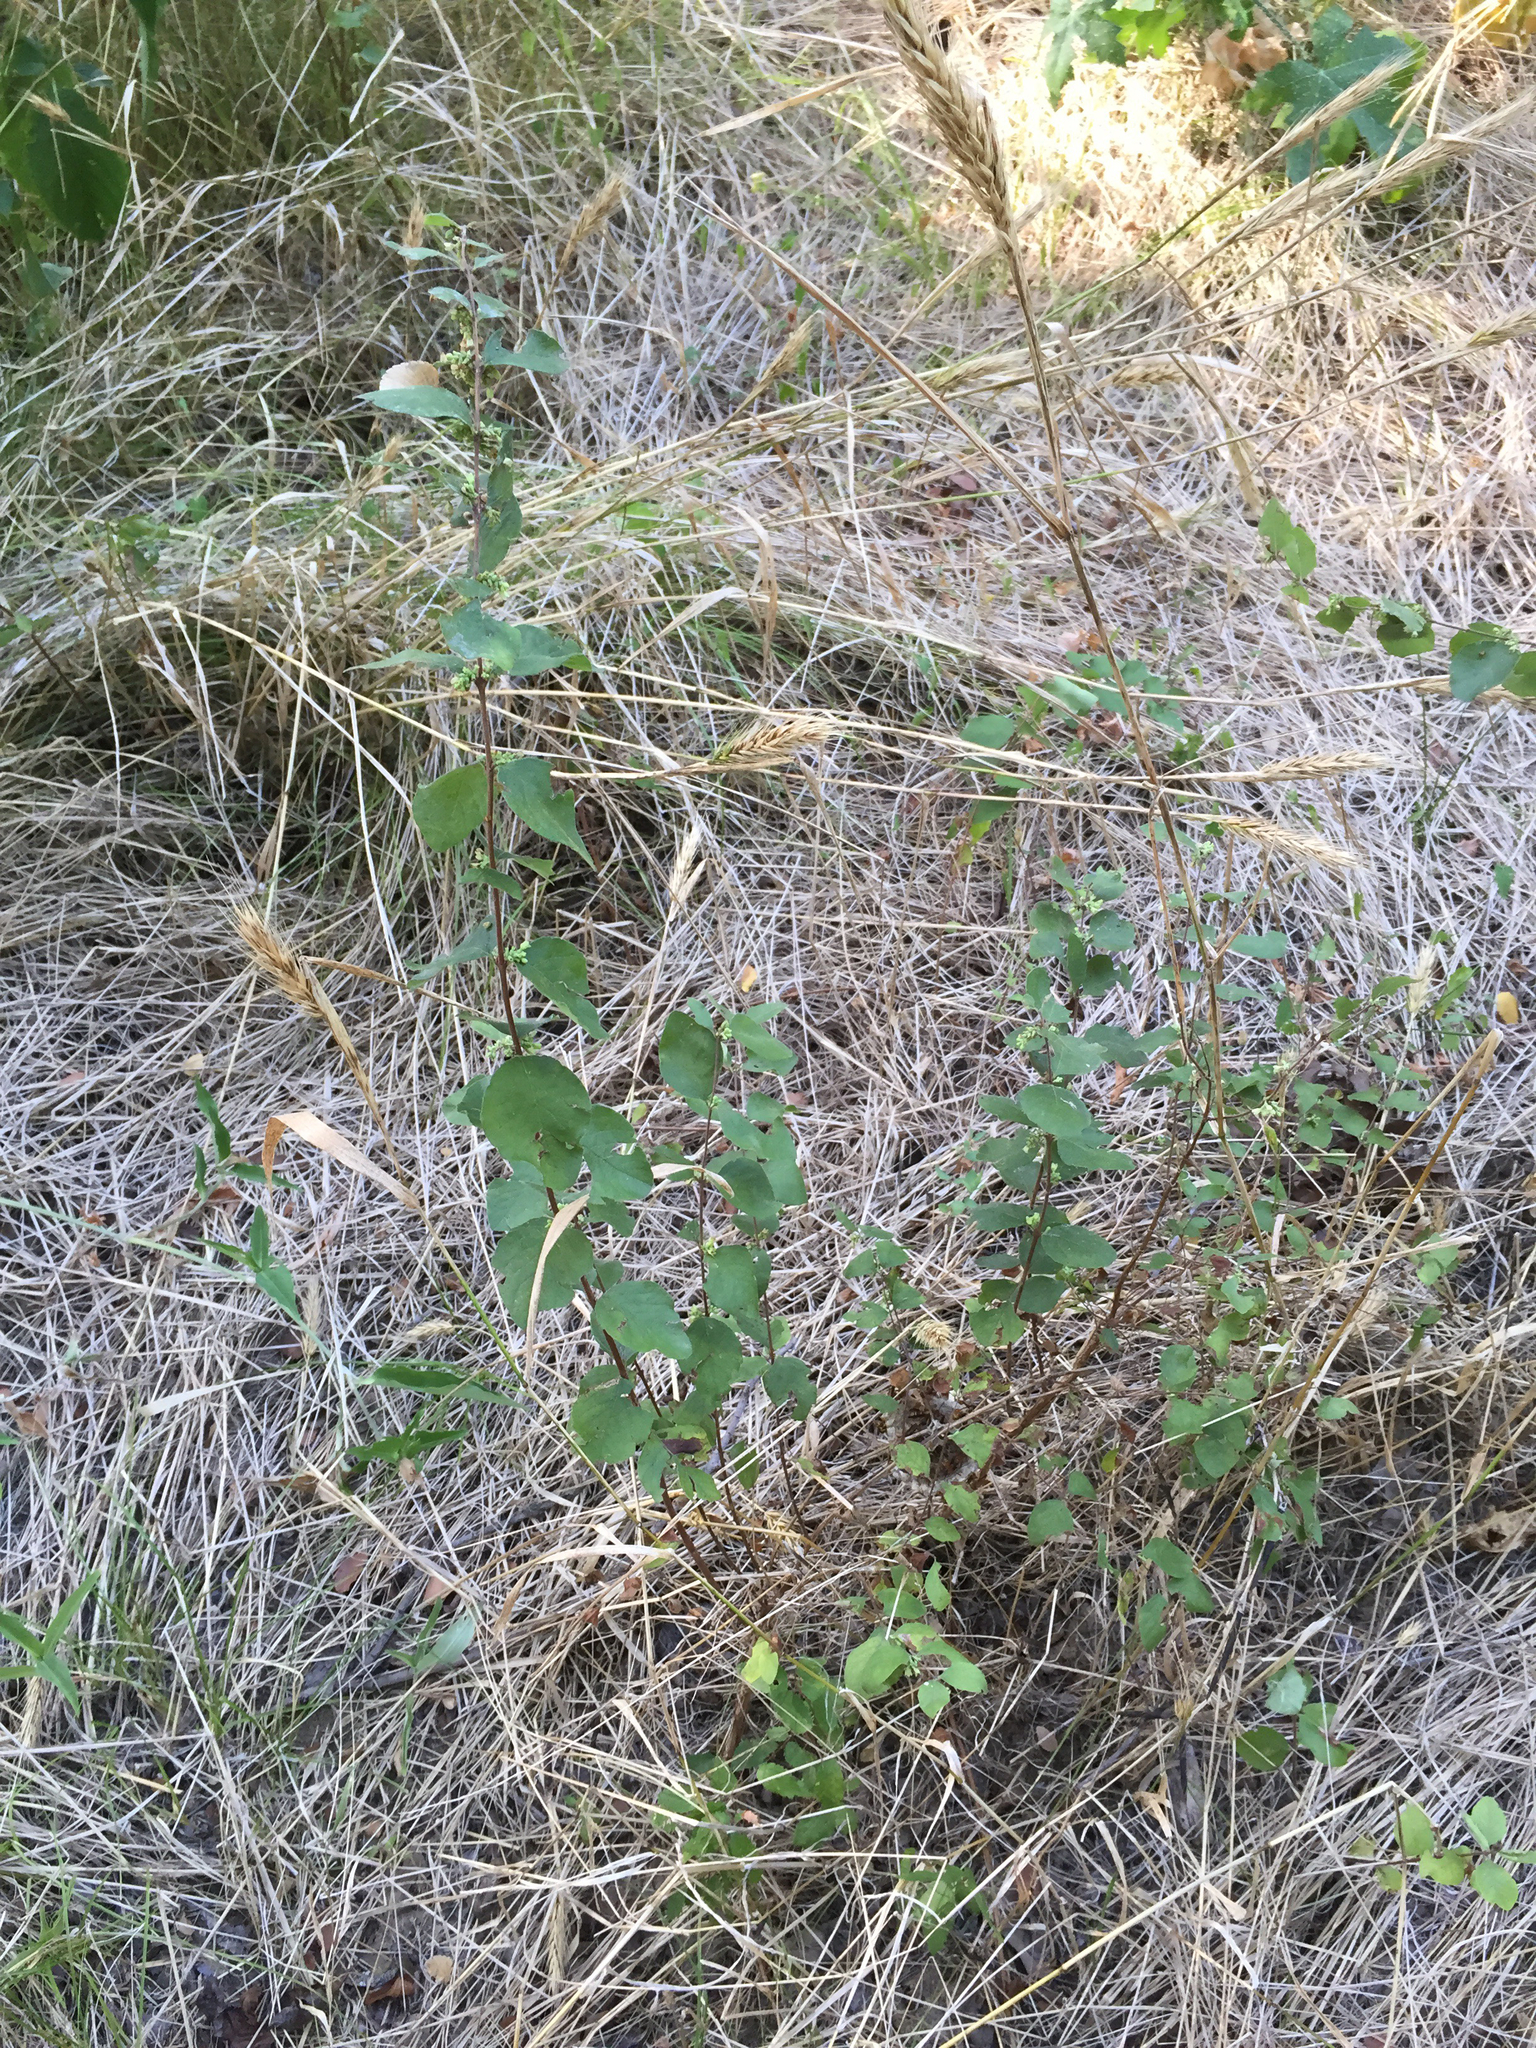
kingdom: Plantae
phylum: Tracheophyta
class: Magnoliopsida
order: Dipsacales
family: Caprifoliaceae
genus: Symphoricarpos
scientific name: Symphoricarpos orbiculatus
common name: Coralberry
